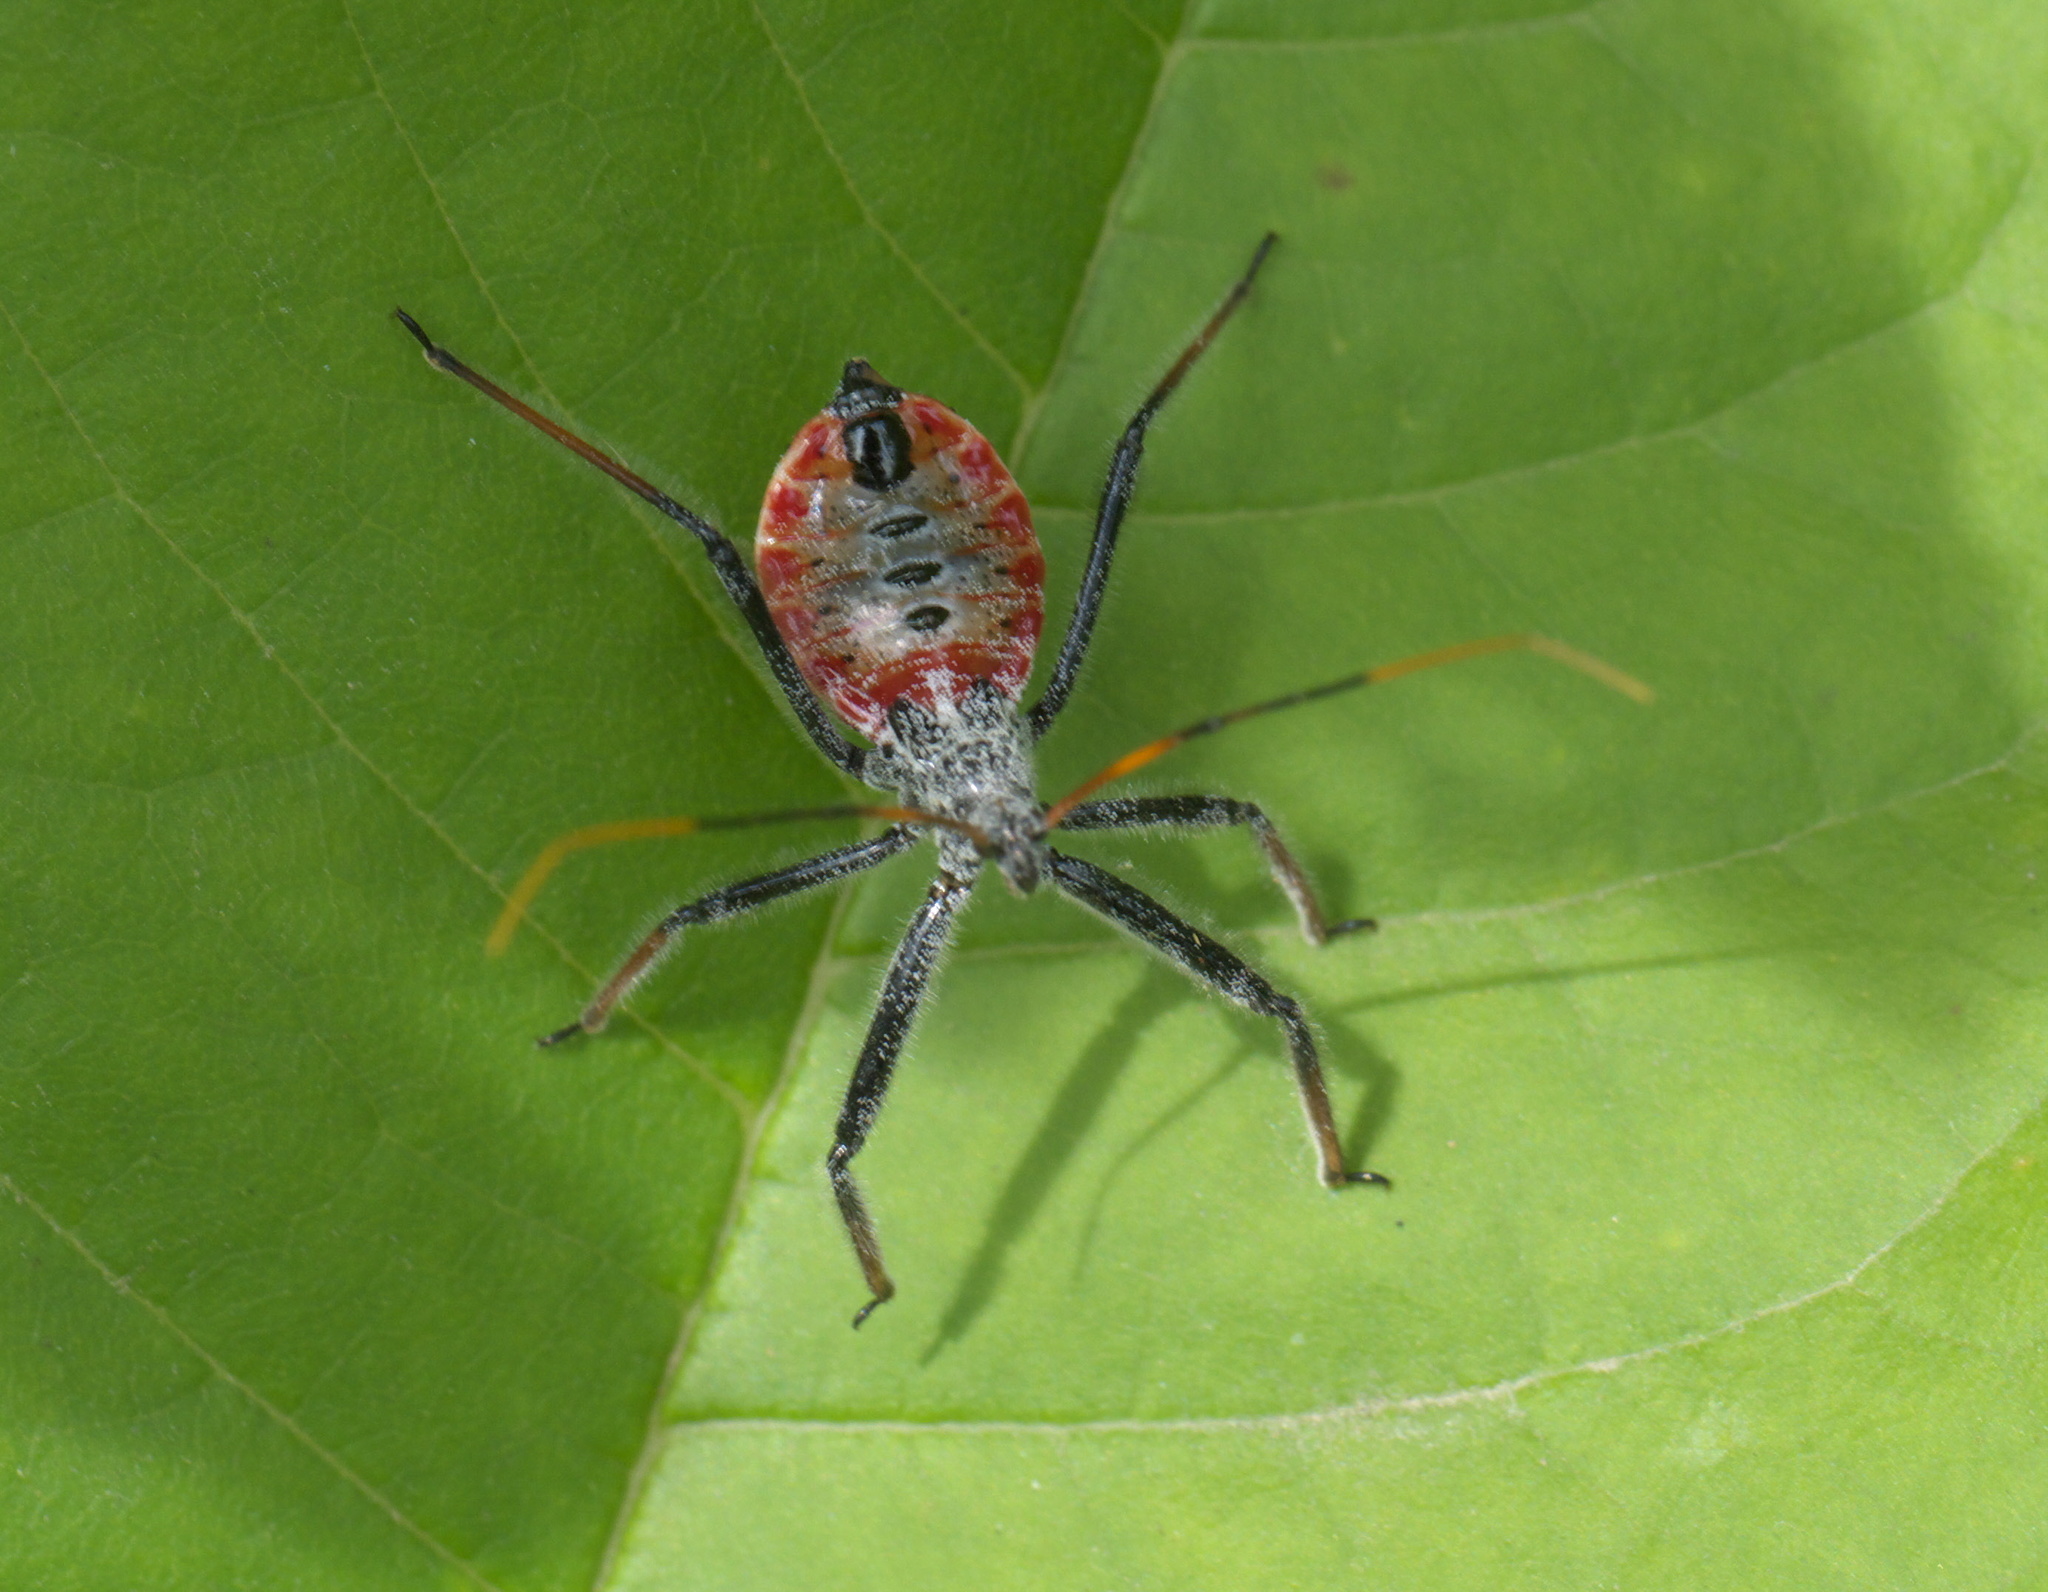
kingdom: Animalia
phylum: Arthropoda
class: Insecta
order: Hemiptera
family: Reduviidae
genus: Arilus
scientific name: Arilus cristatus
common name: North american wheel bug
